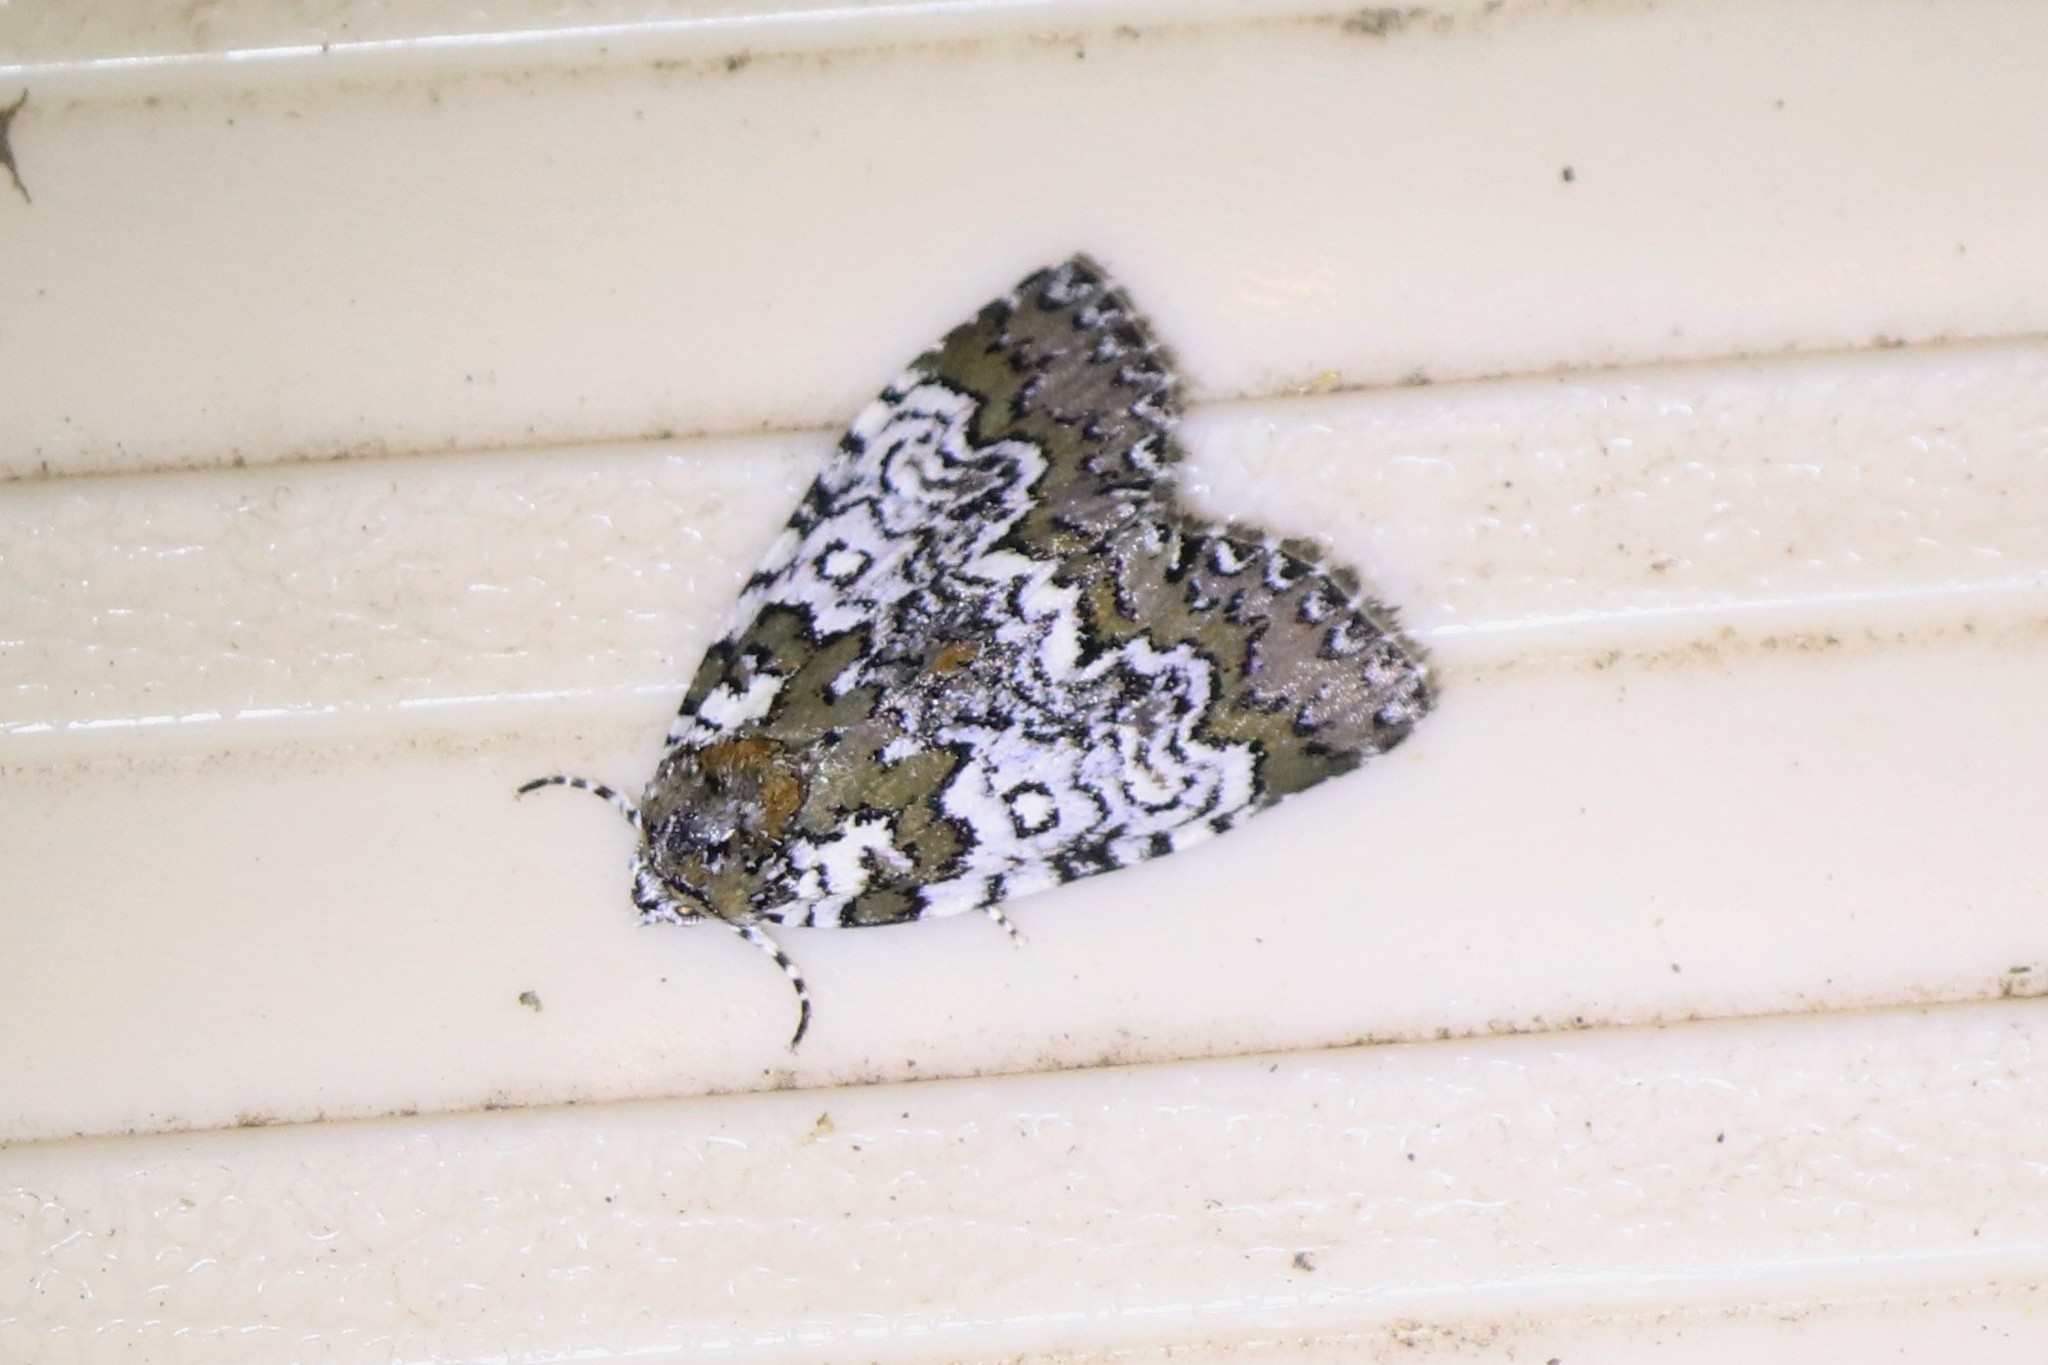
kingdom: Animalia
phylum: Arthropoda
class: Insecta
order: Lepidoptera
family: Noctuidae
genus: Cerma
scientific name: Cerma cora
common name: Bird dropping moth
